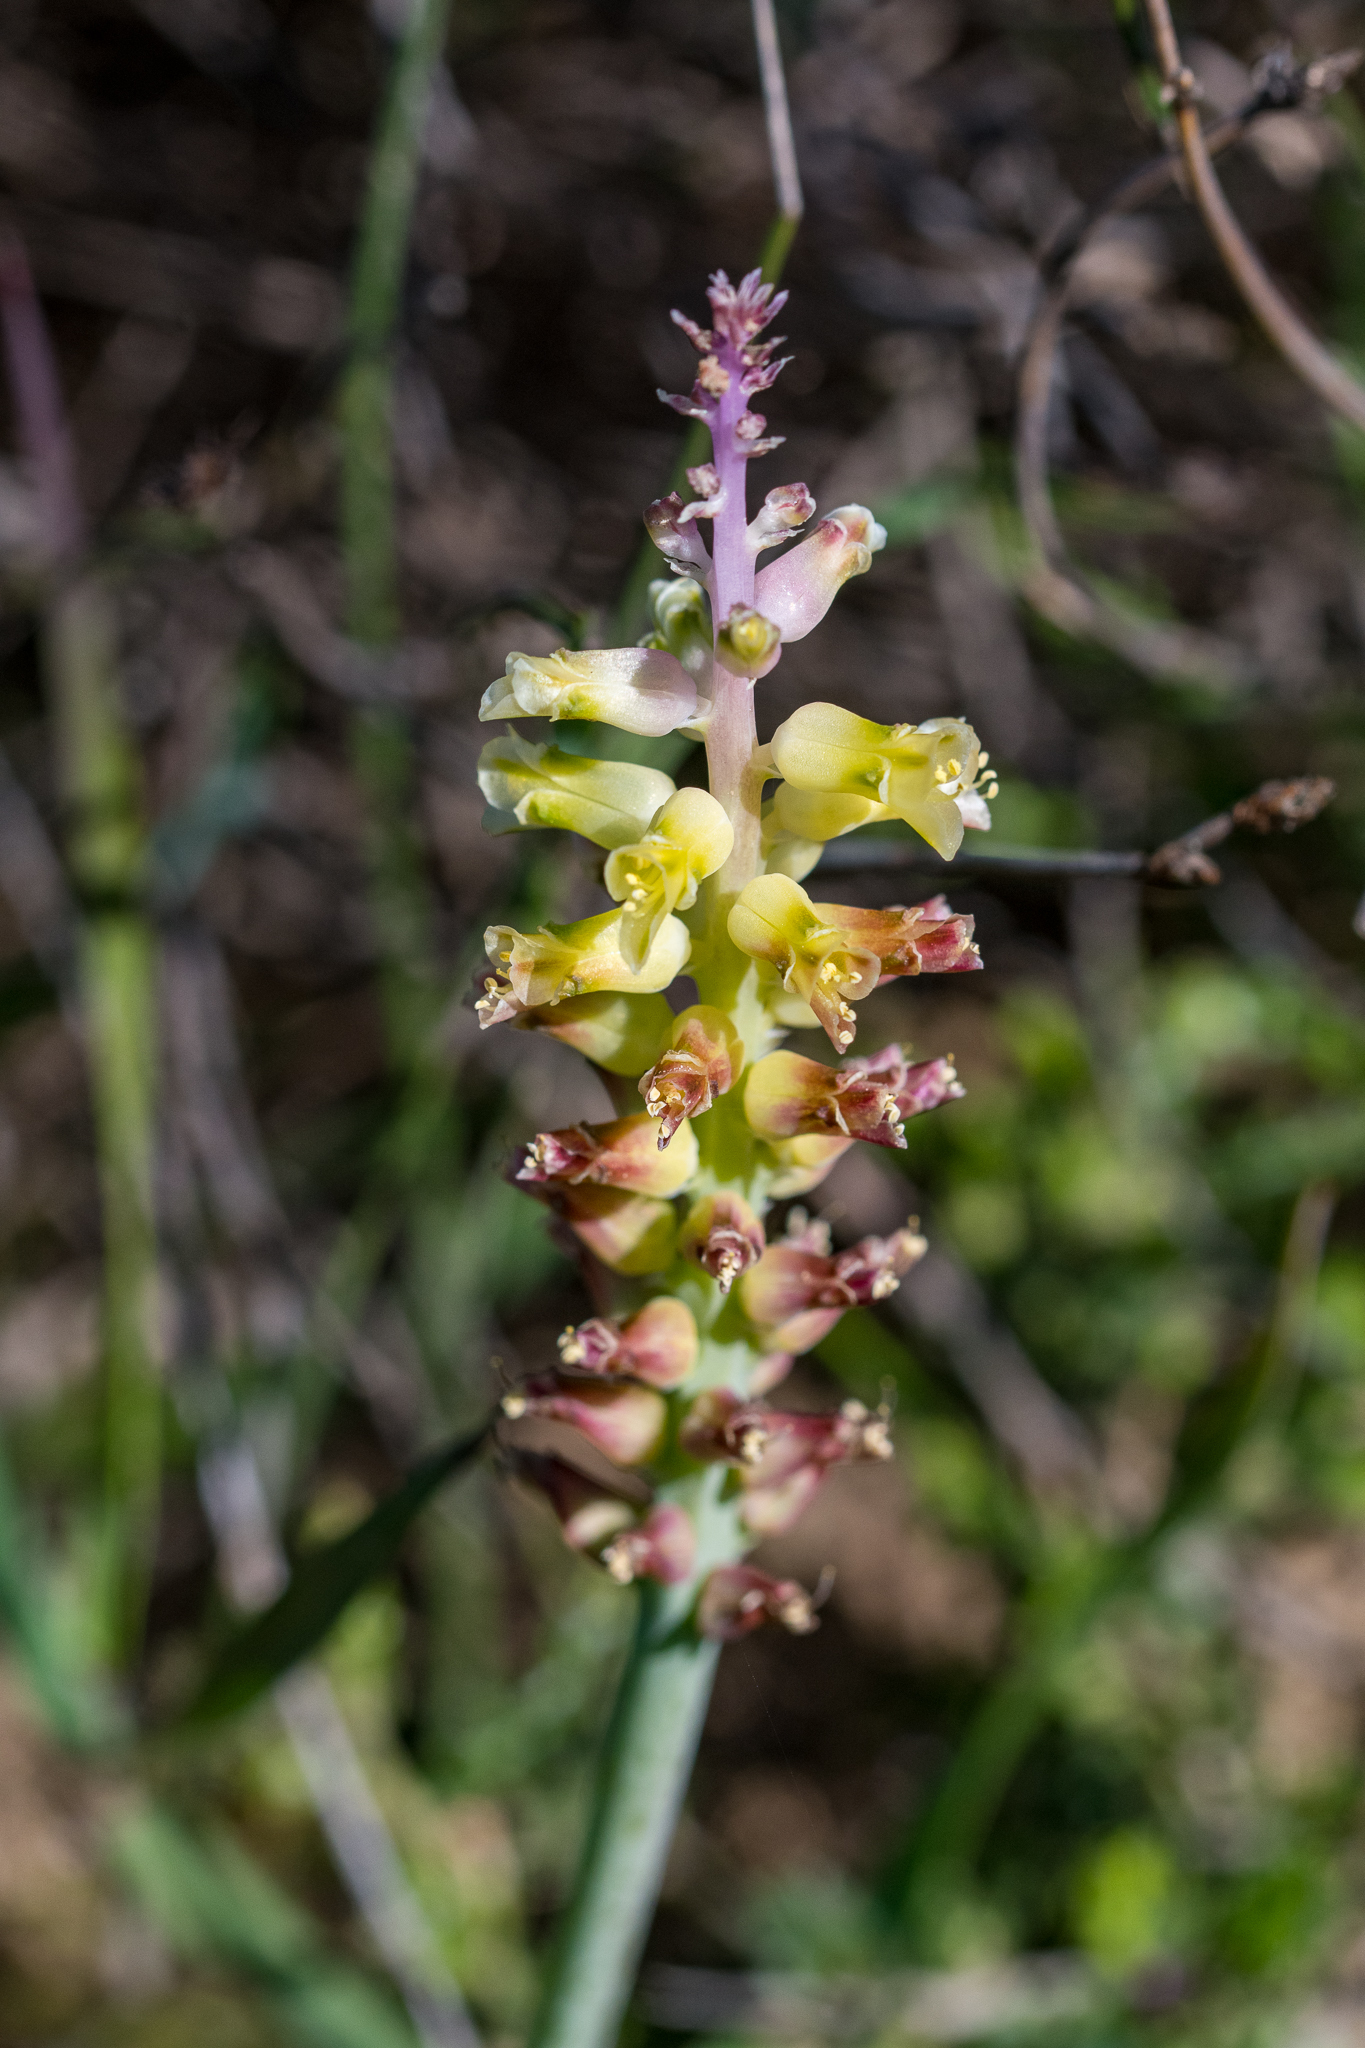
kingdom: Plantae
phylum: Tracheophyta
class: Liliopsida
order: Asparagales
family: Asparagaceae
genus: Lachenalia
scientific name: Lachenalia pallida
